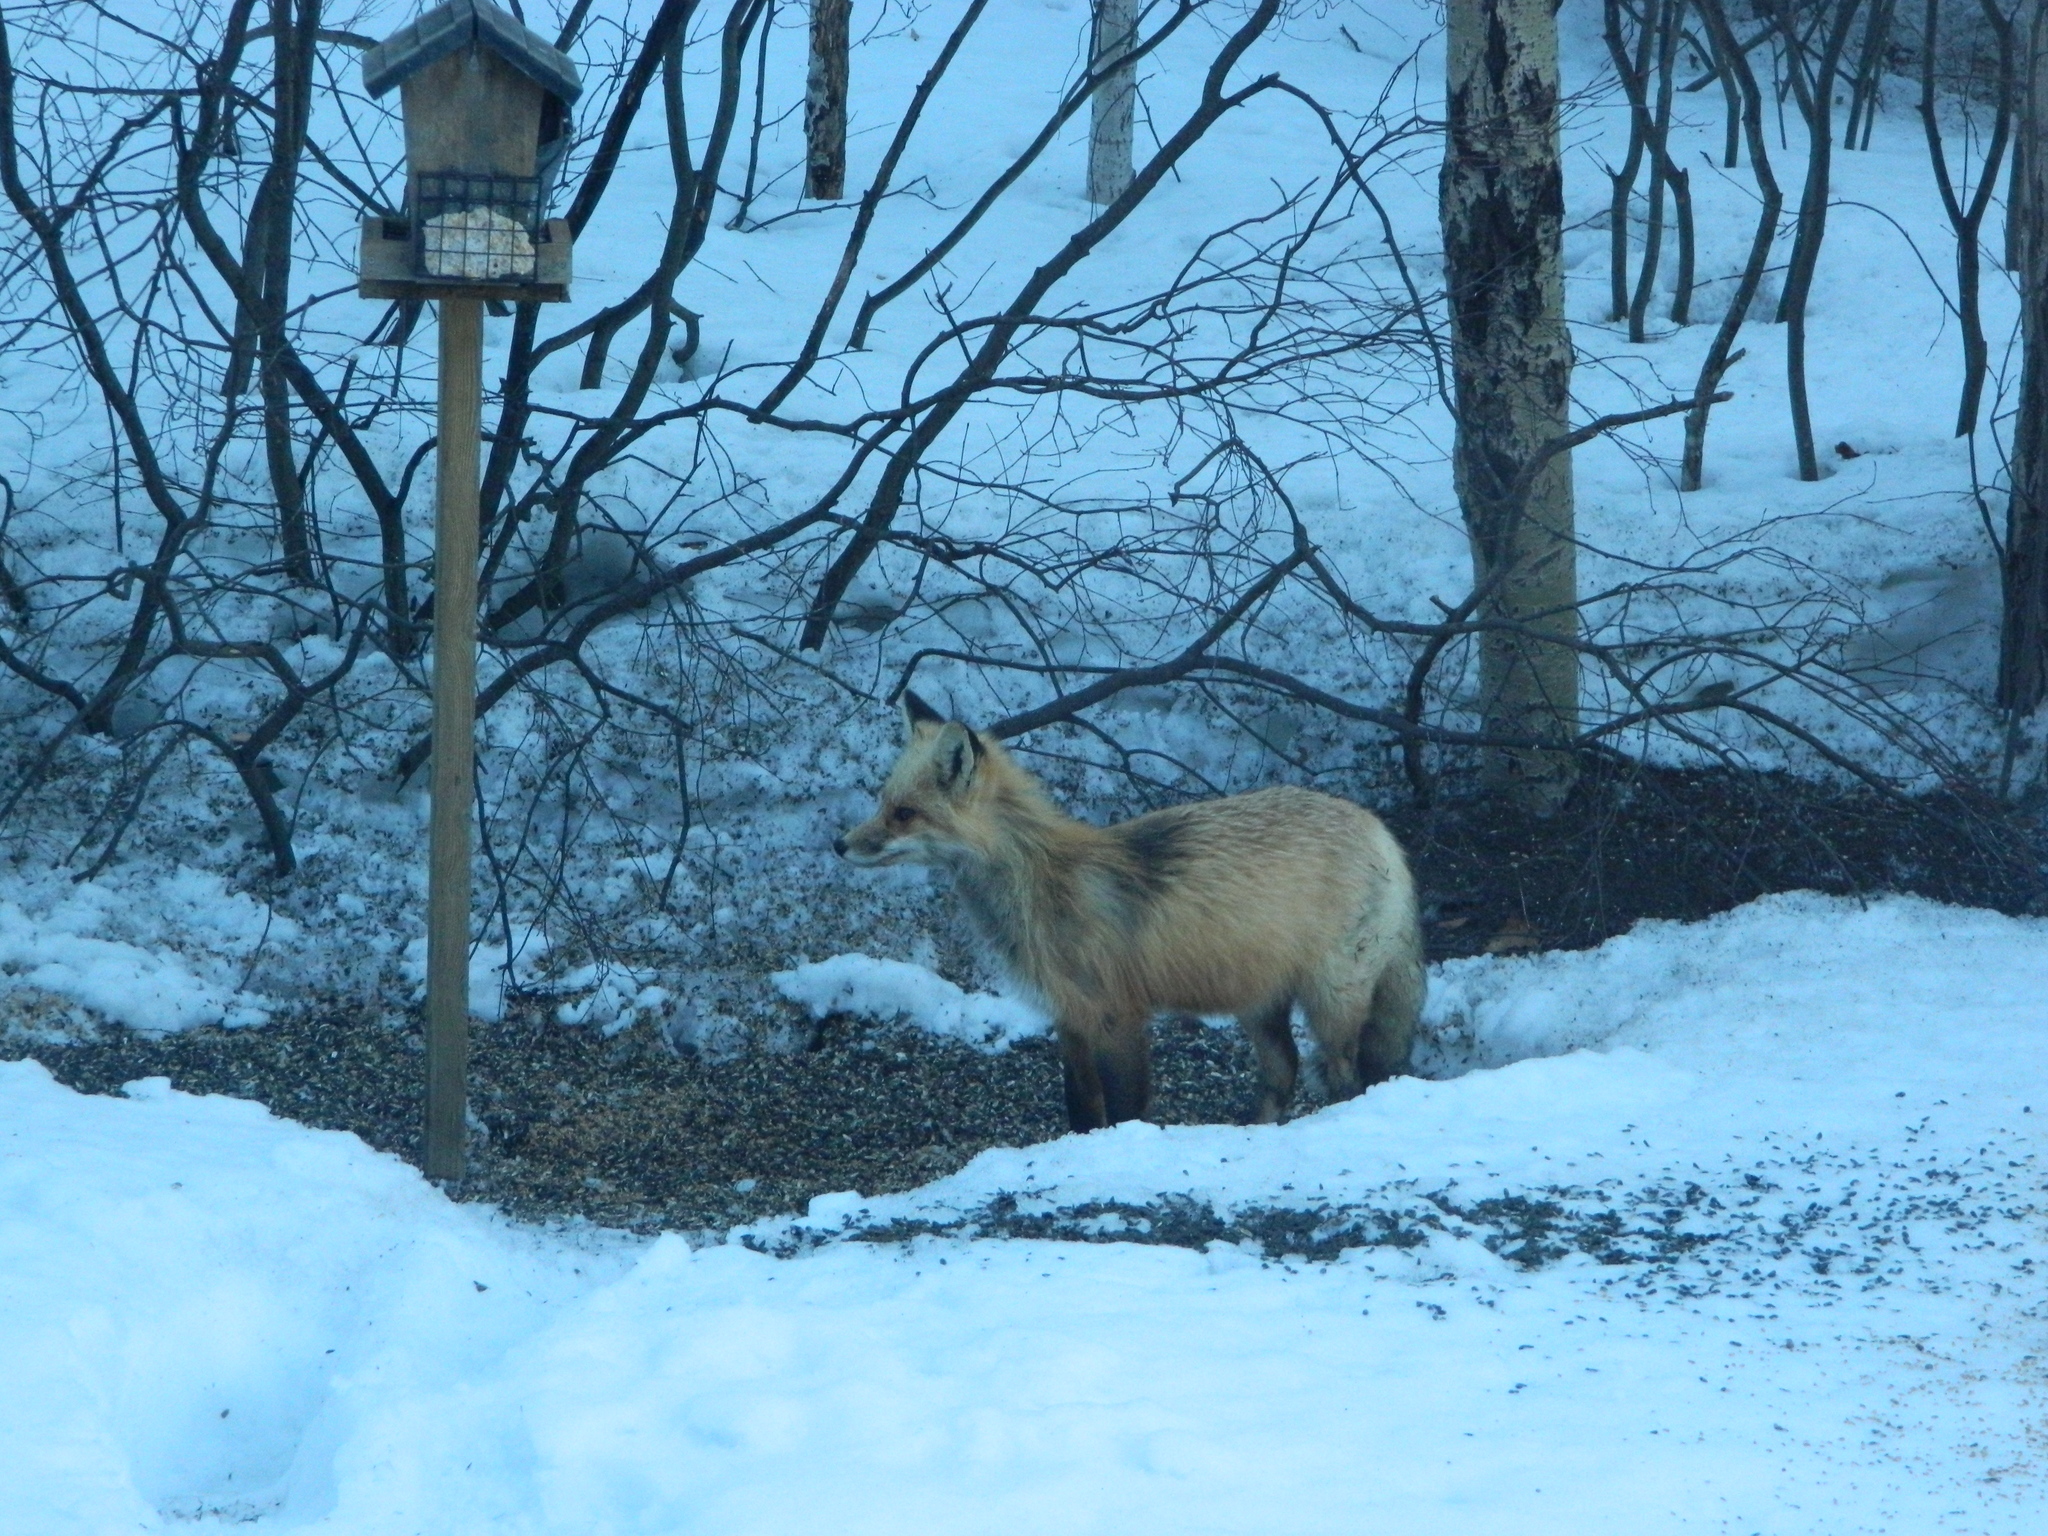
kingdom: Animalia
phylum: Chordata
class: Mammalia
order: Carnivora
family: Canidae
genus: Vulpes
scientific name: Vulpes vulpes
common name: Red fox
